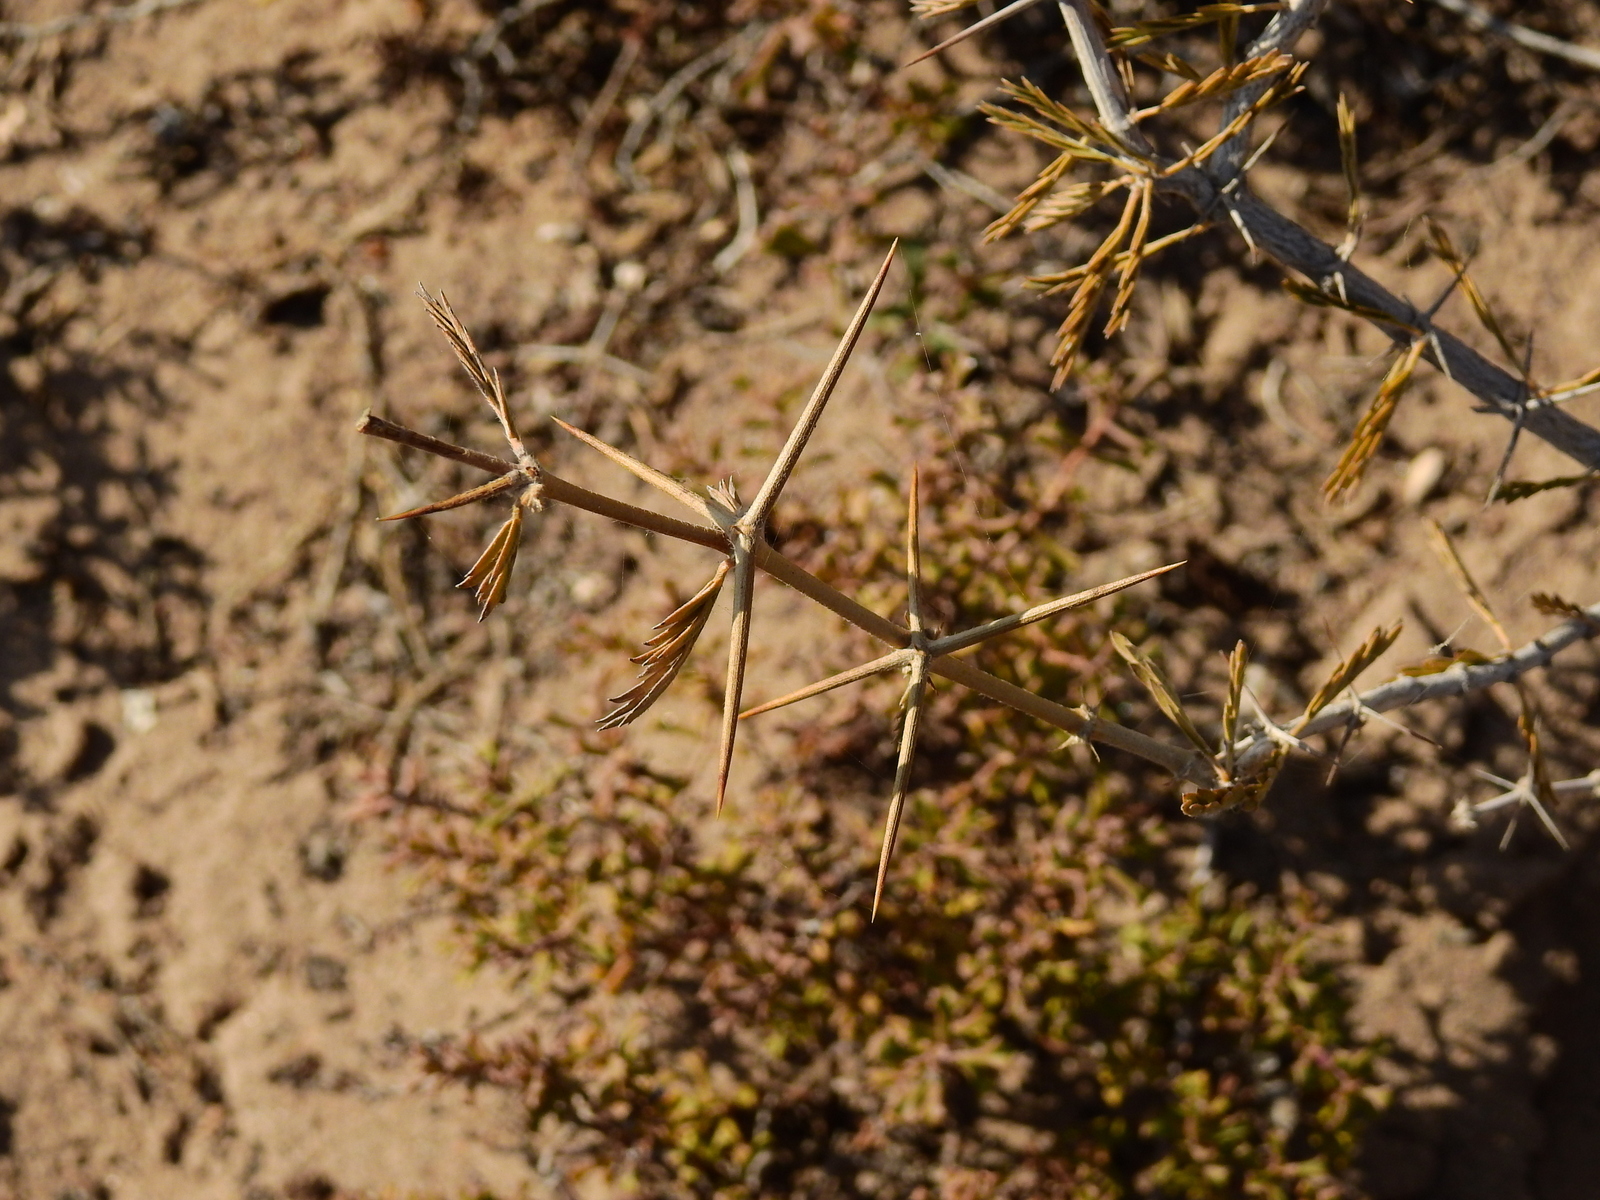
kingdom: Plantae
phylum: Tracheophyta
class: Magnoliopsida
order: Zygophyllales
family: Zygophyllaceae
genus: Plectrocarpa
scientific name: Plectrocarpa tetracantha
